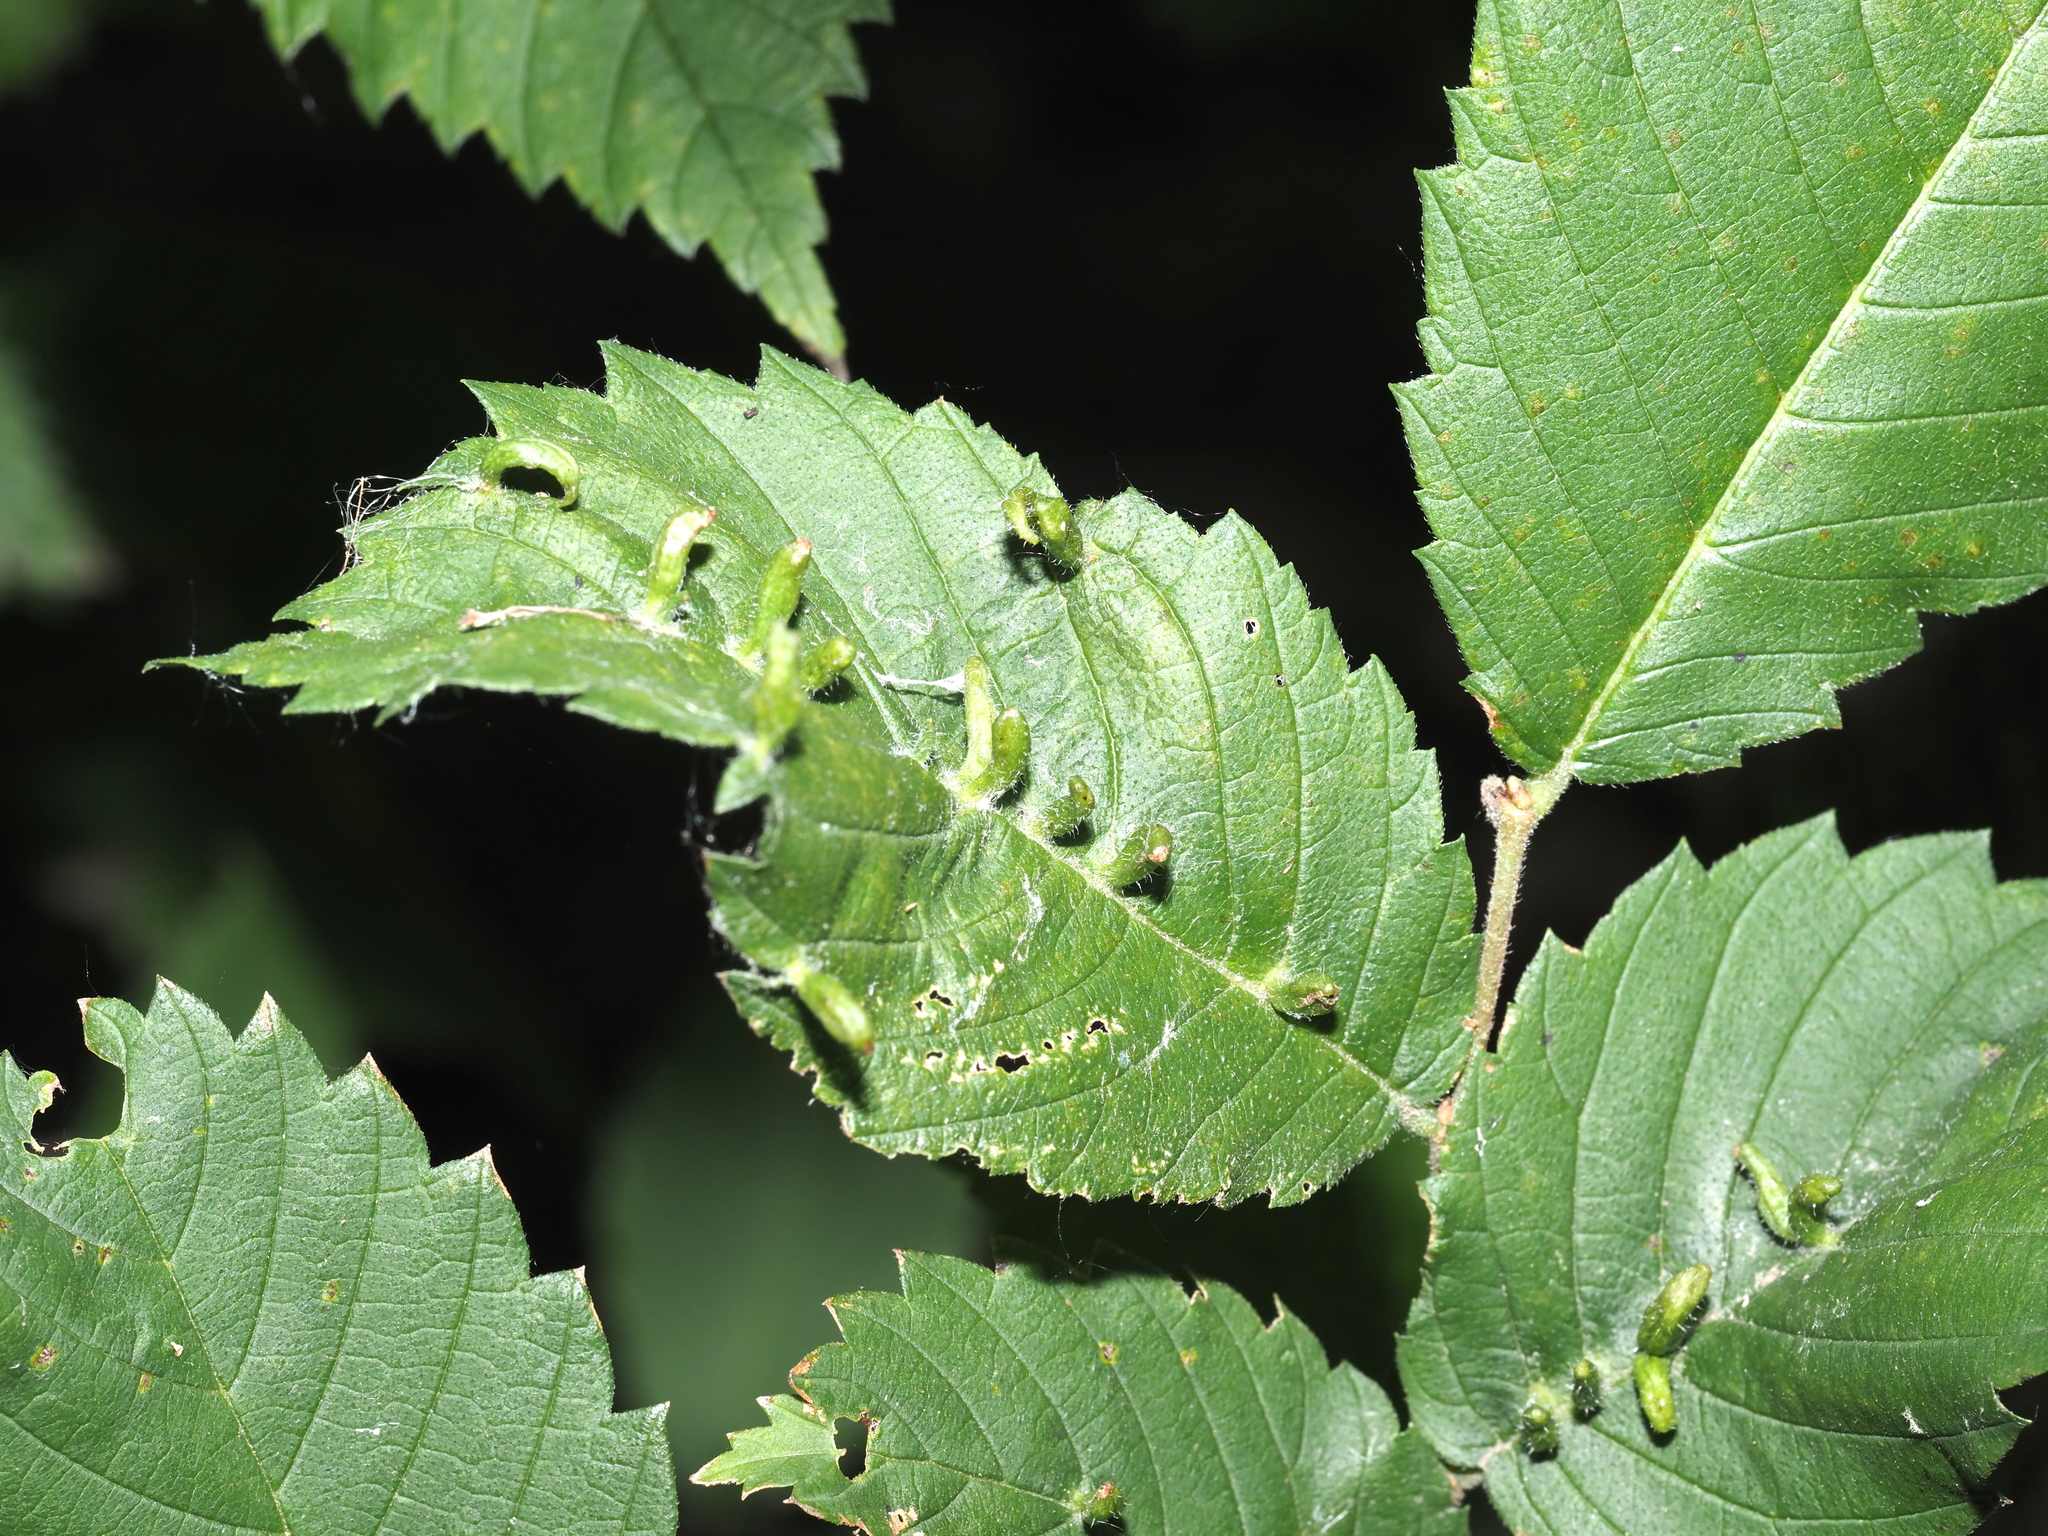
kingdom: Animalia
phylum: Arthropoda
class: Arachnida
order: Trombidiformes
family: Eriophyidae
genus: Aceria
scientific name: Aceria
